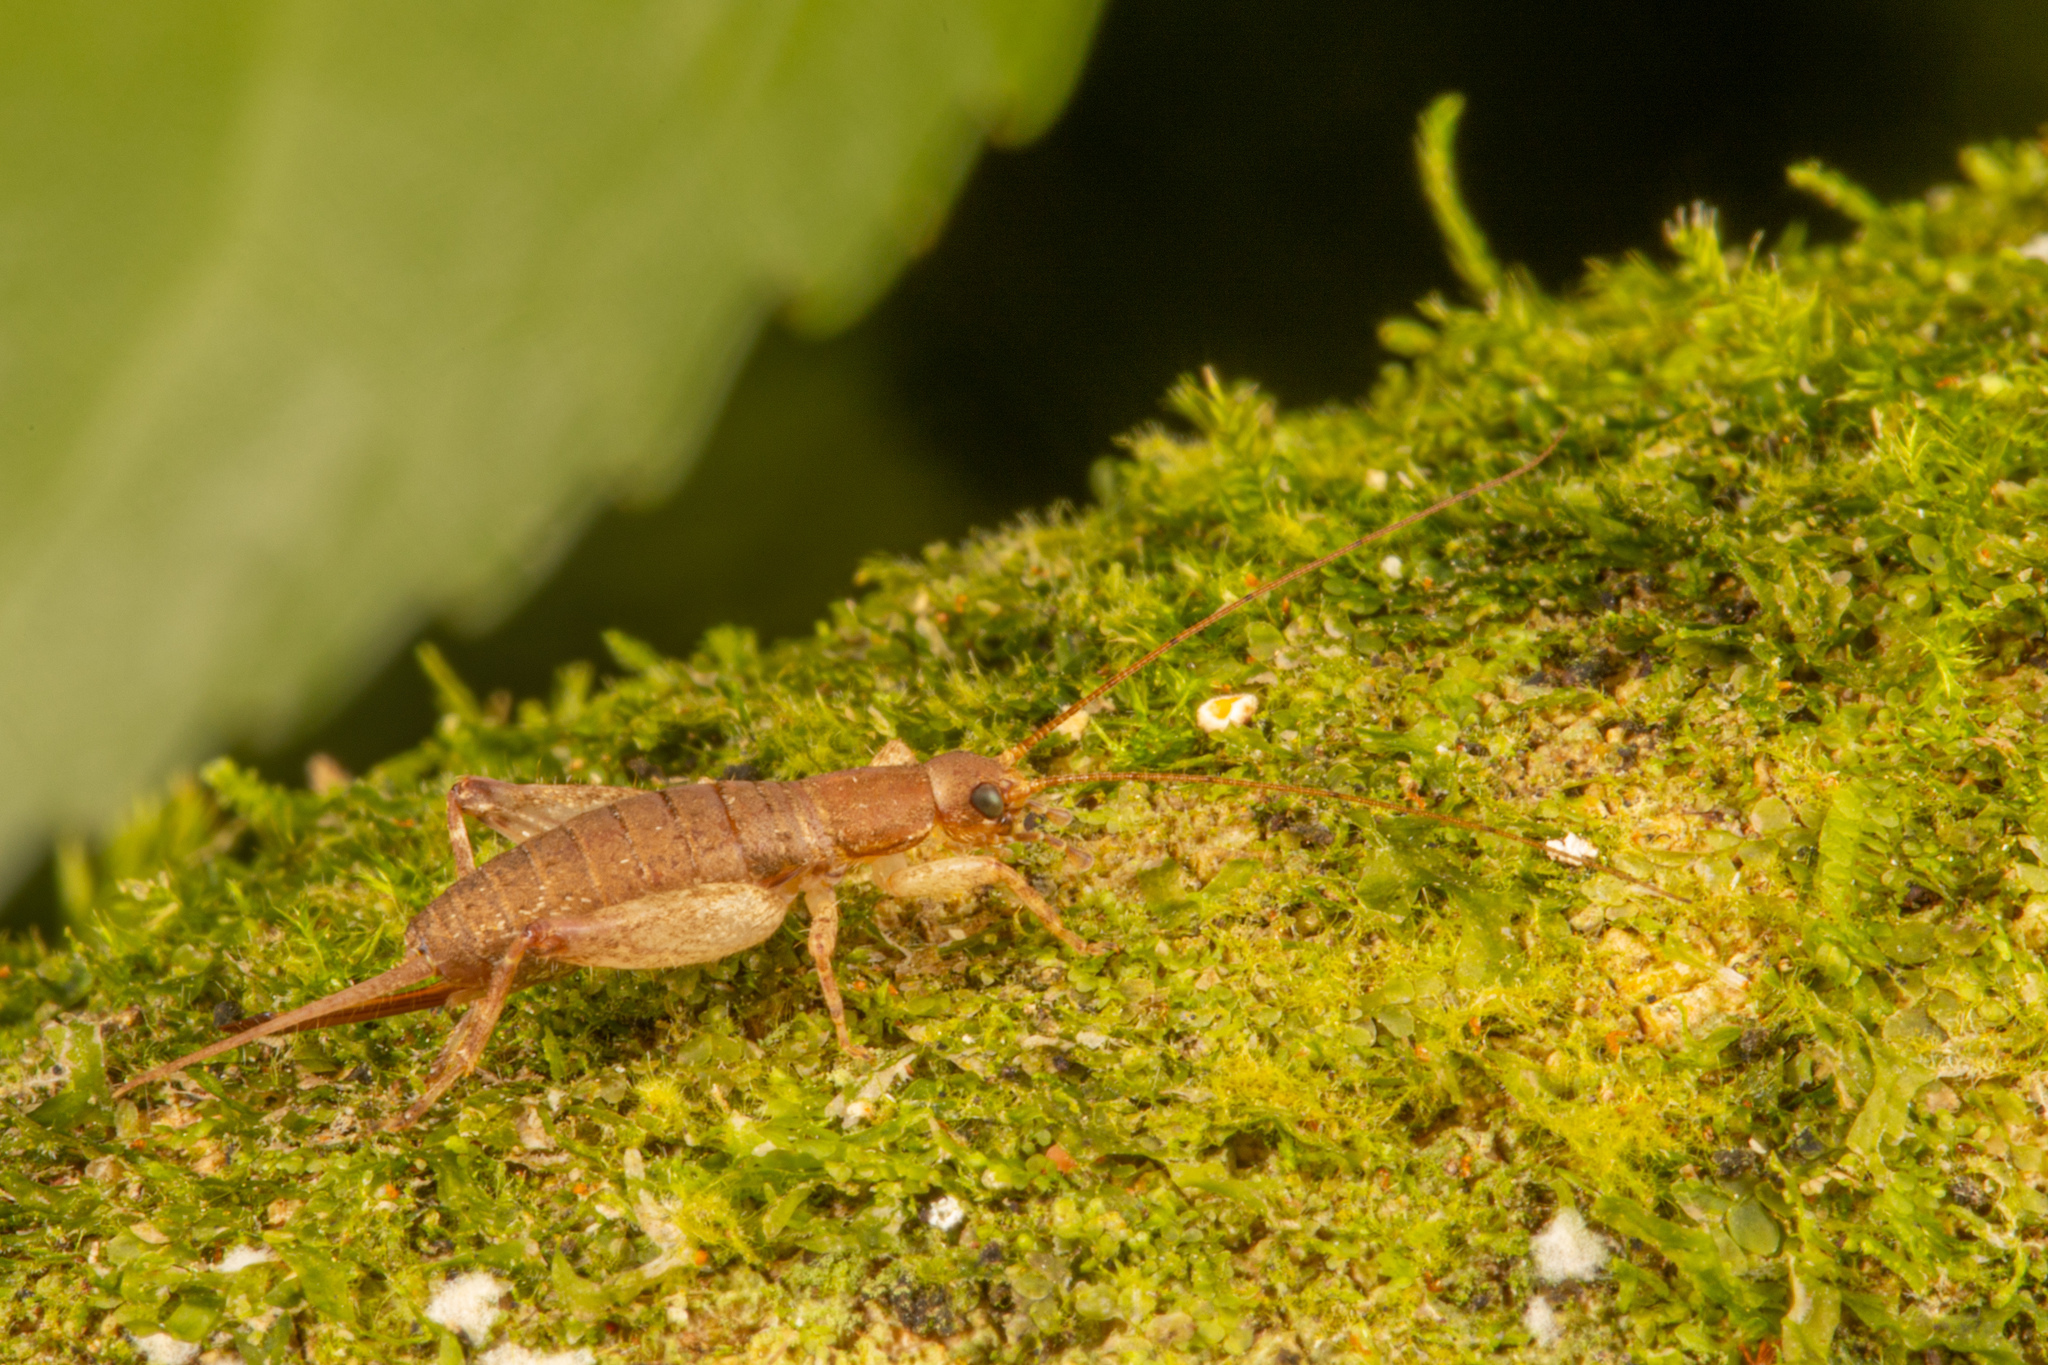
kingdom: Animalia
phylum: Arthropoda
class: Insecta
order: Orthoptera
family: Mogoplistidae
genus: Ornebius
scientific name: Ornebius aperta
